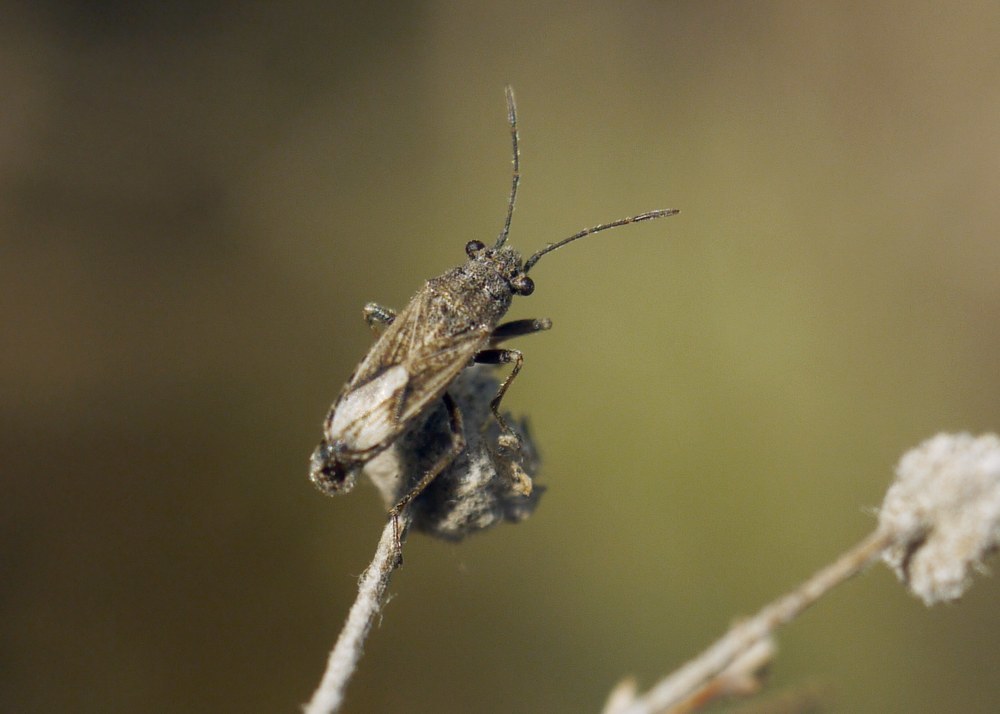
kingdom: Animalia
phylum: Arthropoda
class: Insecta
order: Hemiptera
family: Lygaeidae
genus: Ortholomus
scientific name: Ortholomus punctipennis
